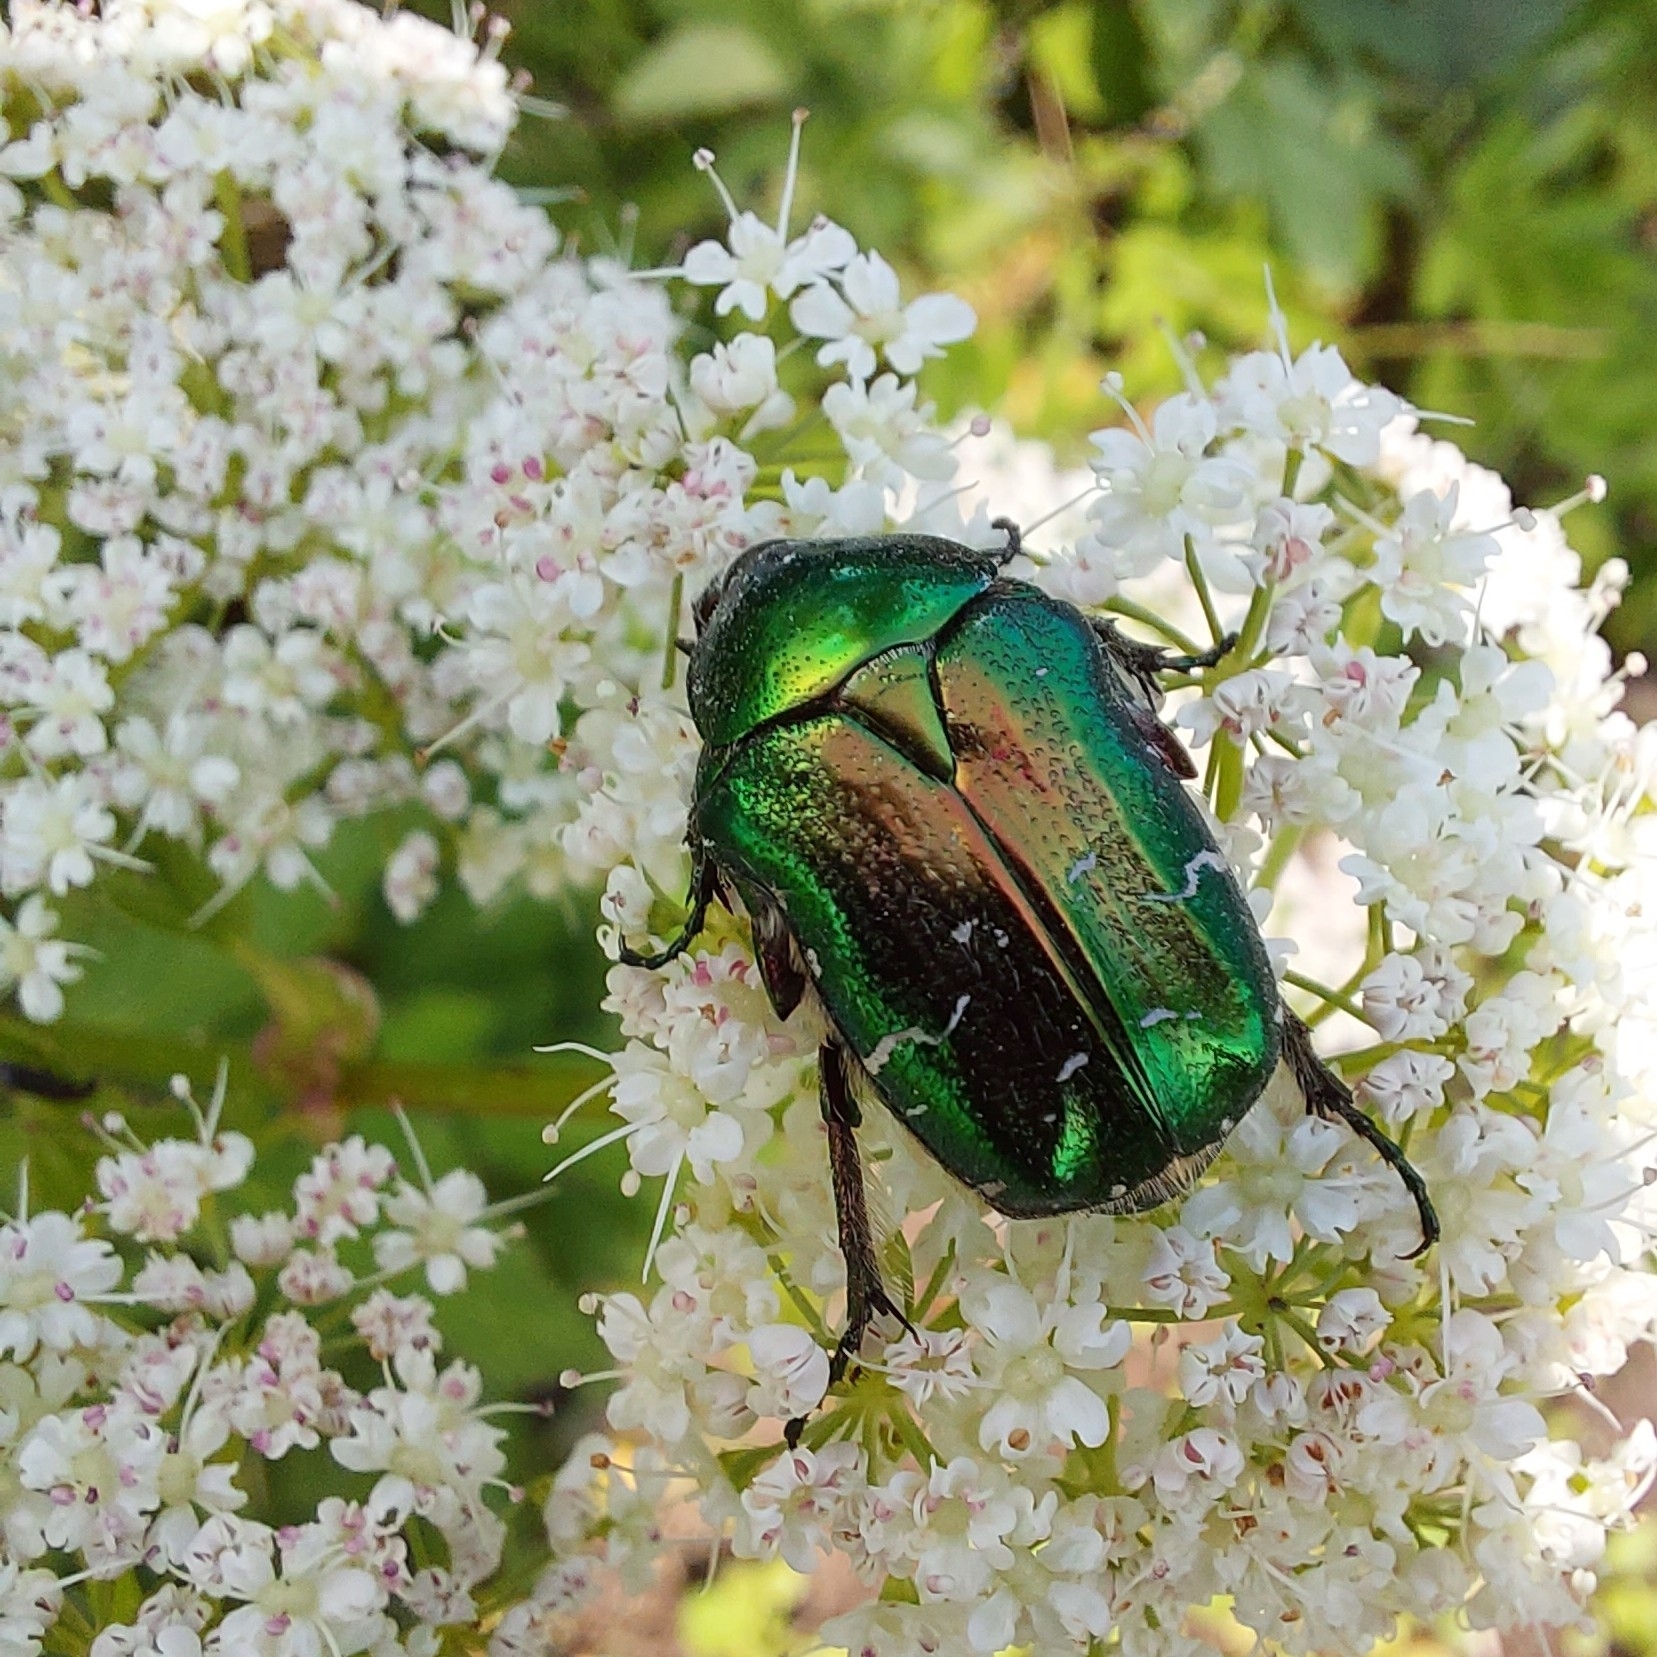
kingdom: Animalia
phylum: Arthropoda
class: Insecta
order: Coleoptera
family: Scarabaeidae
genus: Cetonia
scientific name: Cetonia aurata
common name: Rose chafer
